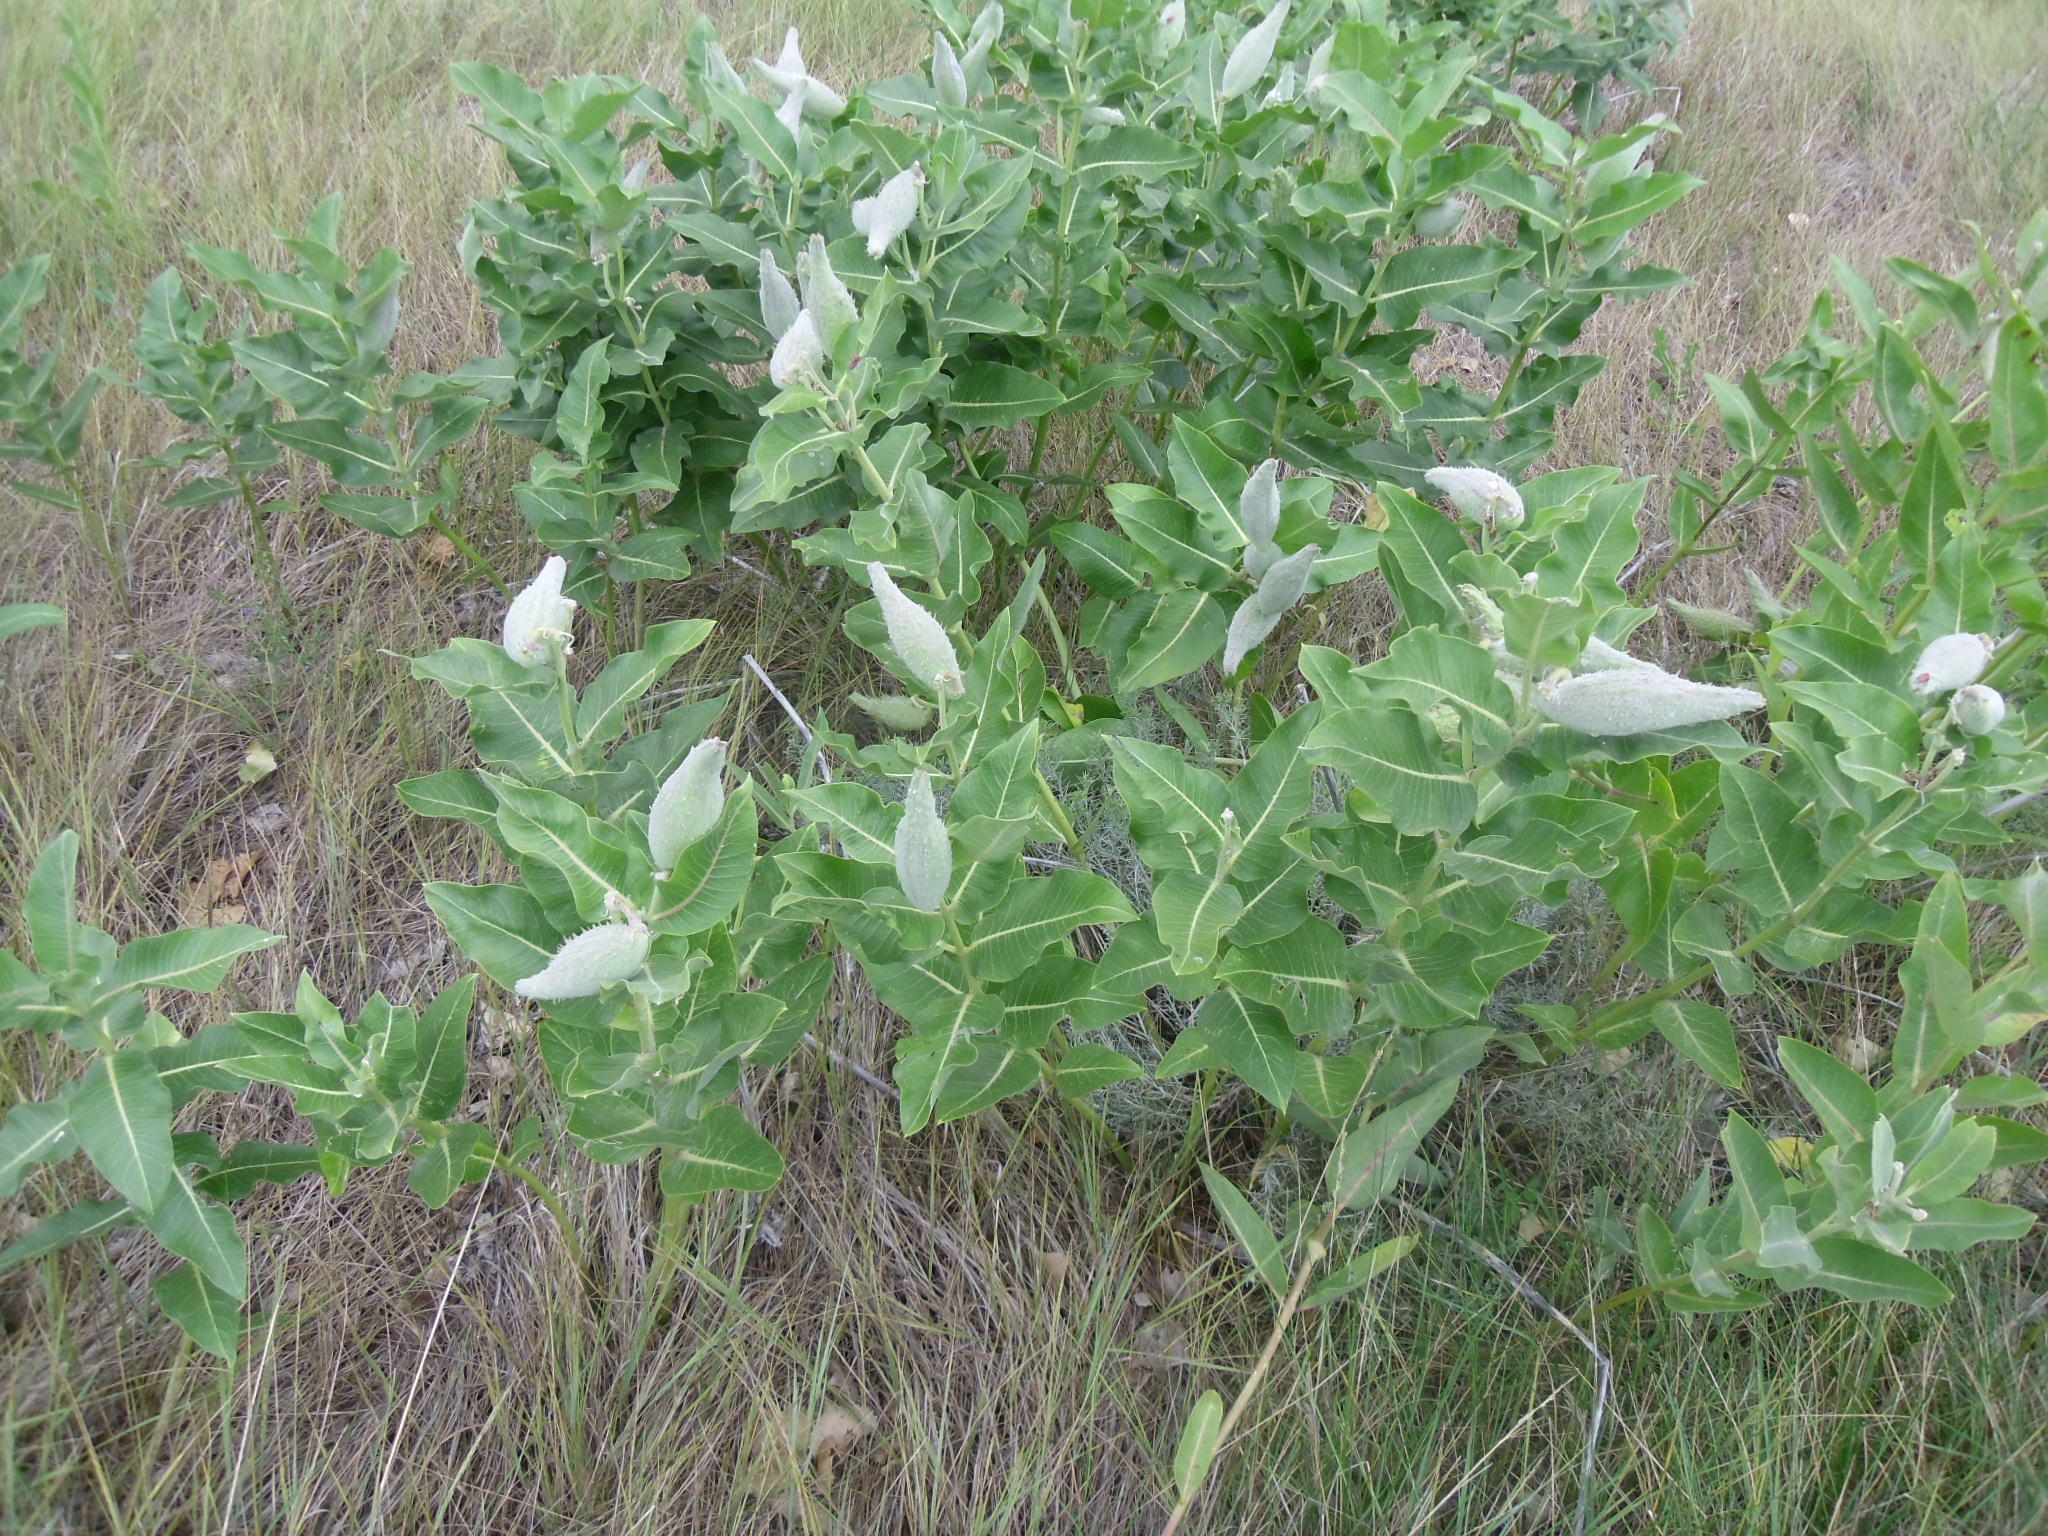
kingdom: Plantae
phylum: Tracheophyta
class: Magnoliopsida
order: Gentianales
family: Apocynaceae
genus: Asclepias
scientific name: Asclepias speciosa
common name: Showy milkweed
